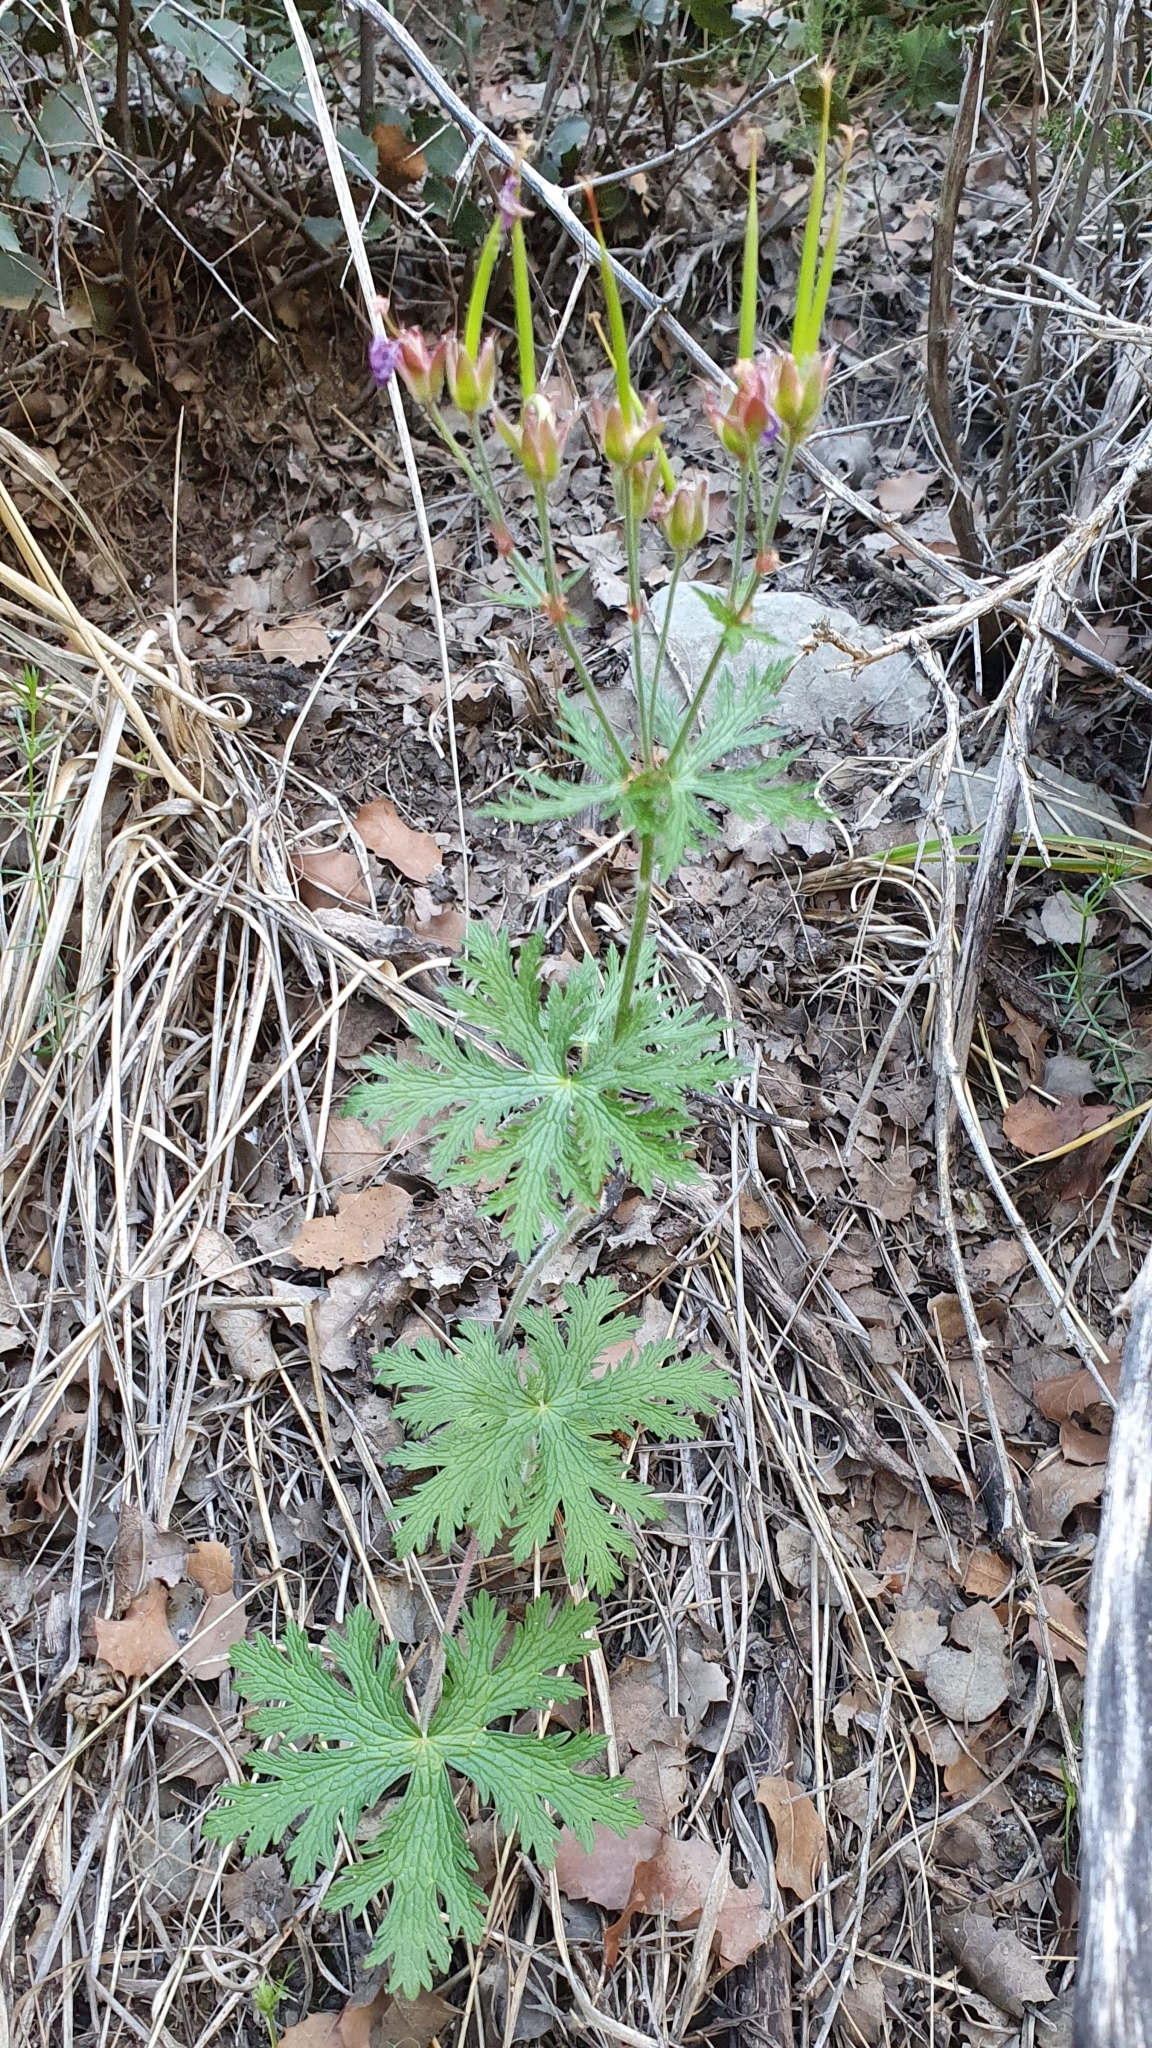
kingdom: Plantae
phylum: Tracheophyta
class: Magnoliopsida
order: Geraniales
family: Geraniaceae
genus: Geranium
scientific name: Geranium atlanticum
